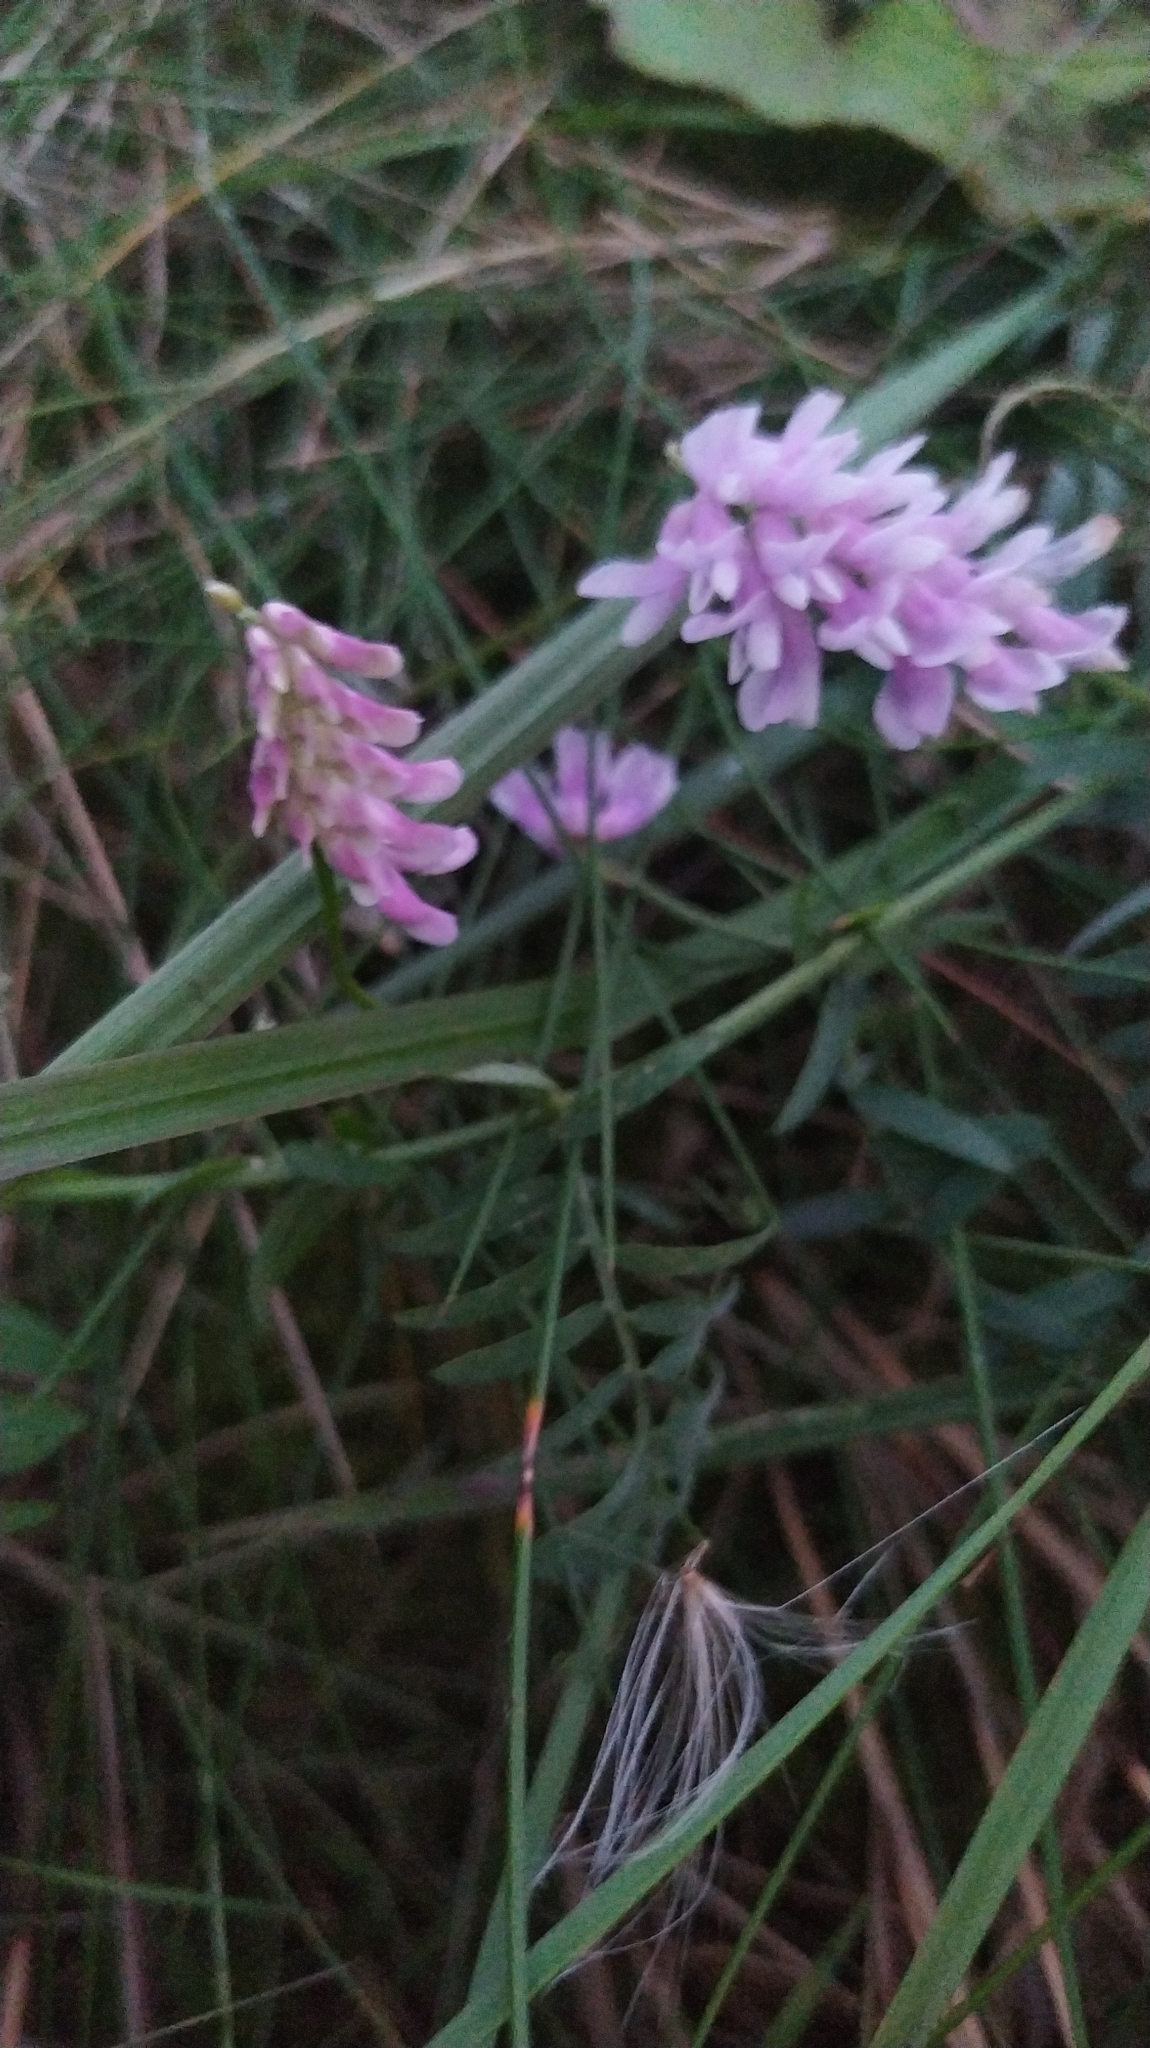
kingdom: Plantae
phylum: Tracheophyta
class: Magnoliopsida
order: Fabales
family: Fabaceae
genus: Vicia
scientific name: Vicia cracca
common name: Bird vetch
